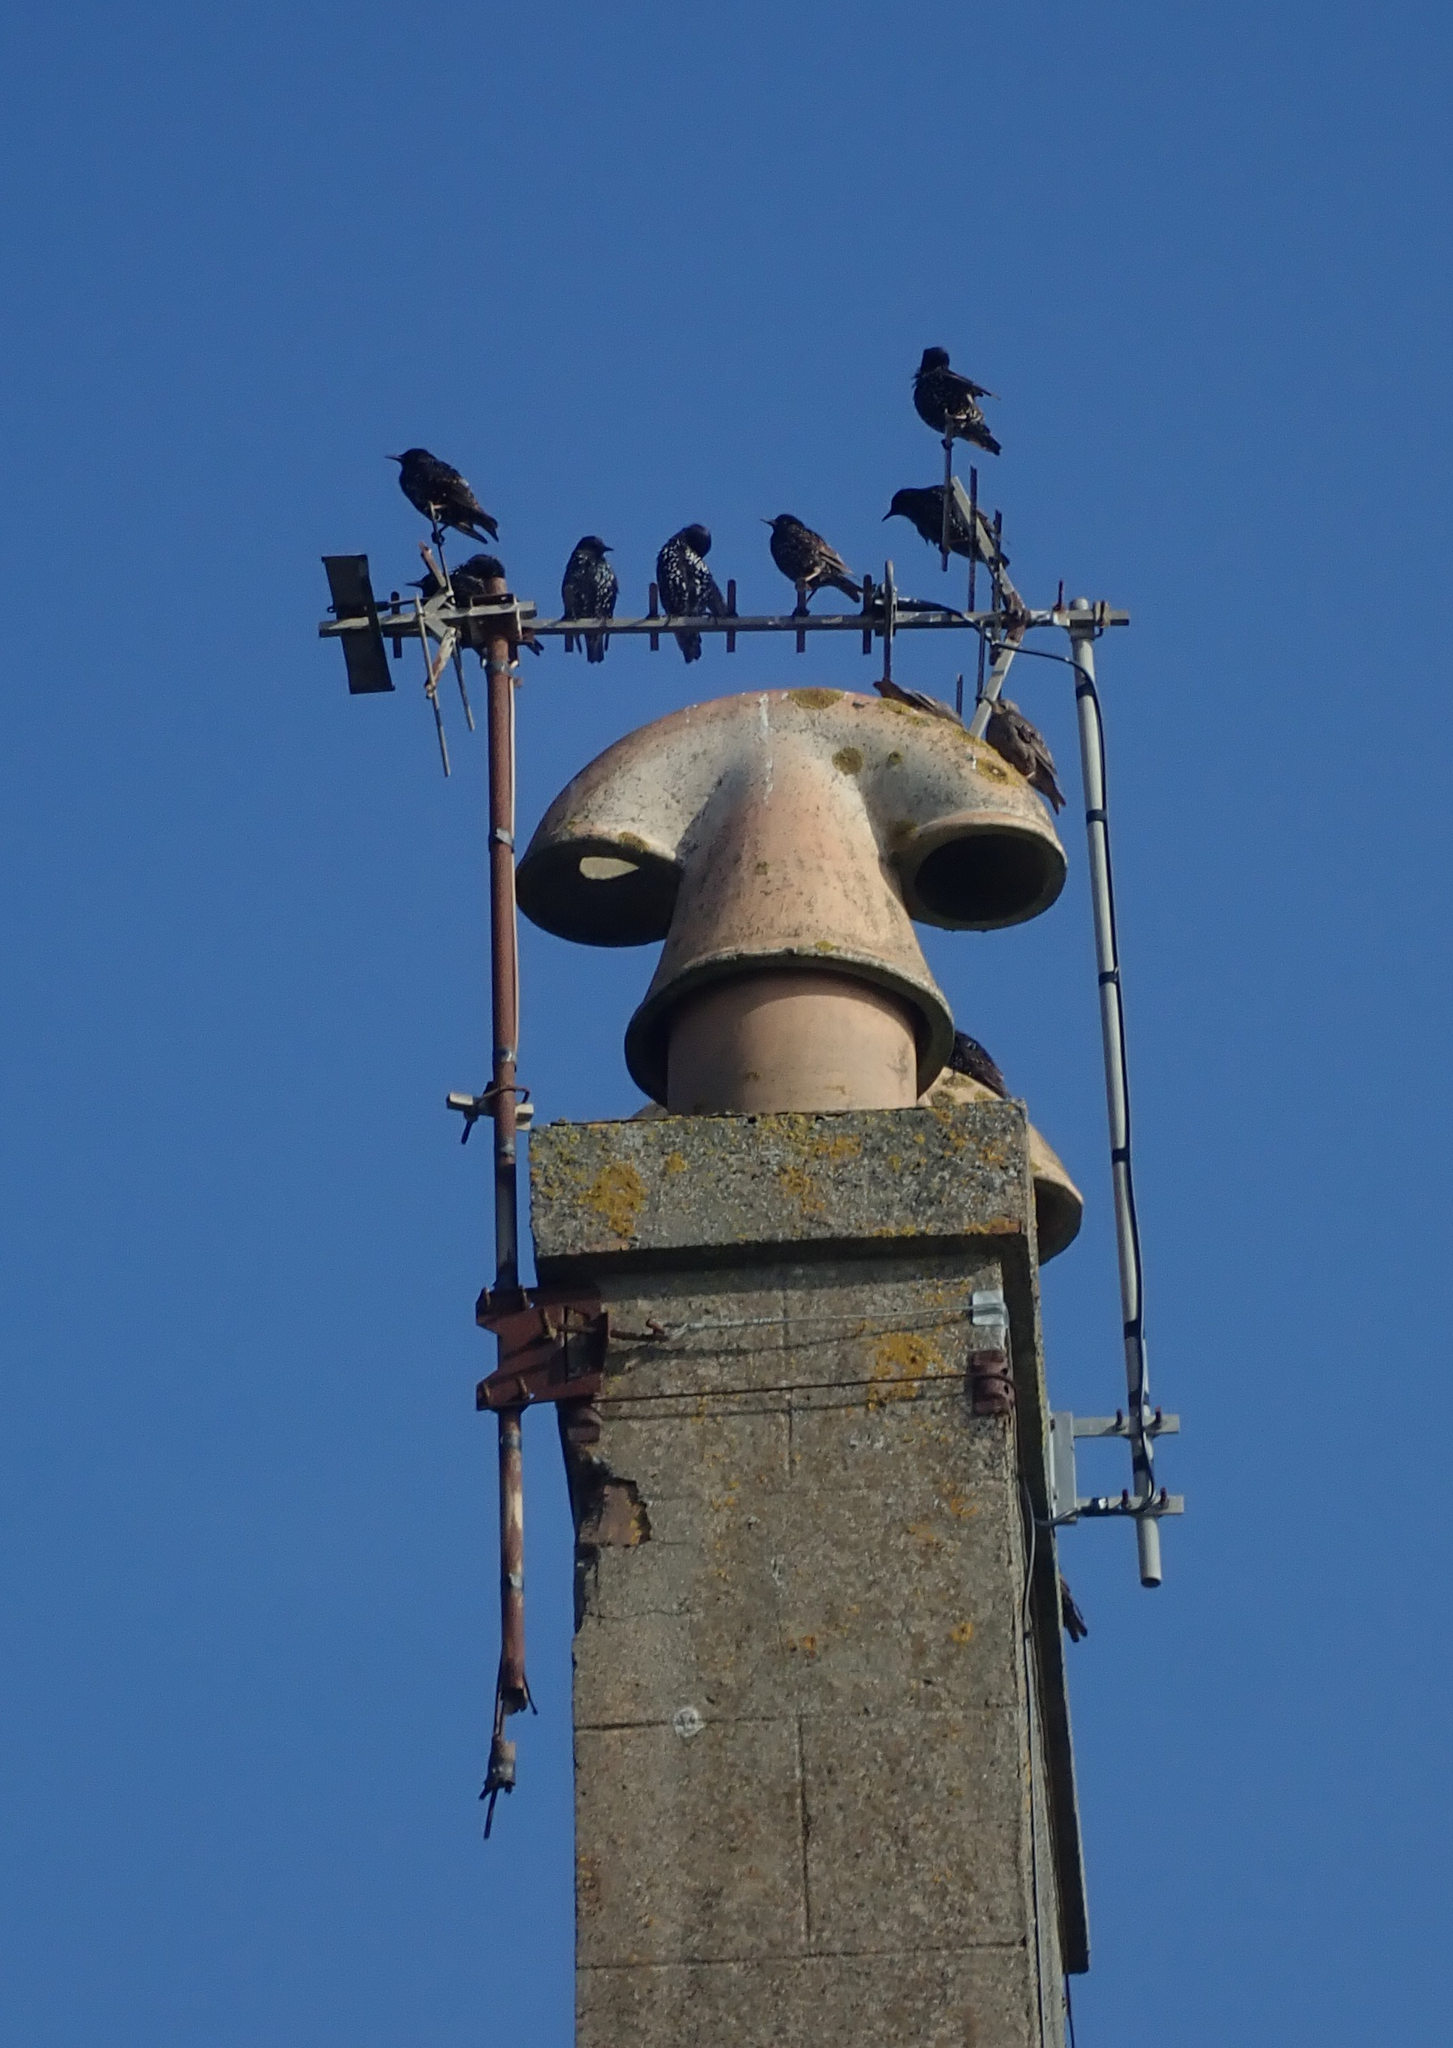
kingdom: Animalia
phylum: Chordata
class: Aves
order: Passeriformes
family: Sturnidae
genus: Sturnus
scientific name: Sturnus vulgaris
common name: Common starling
